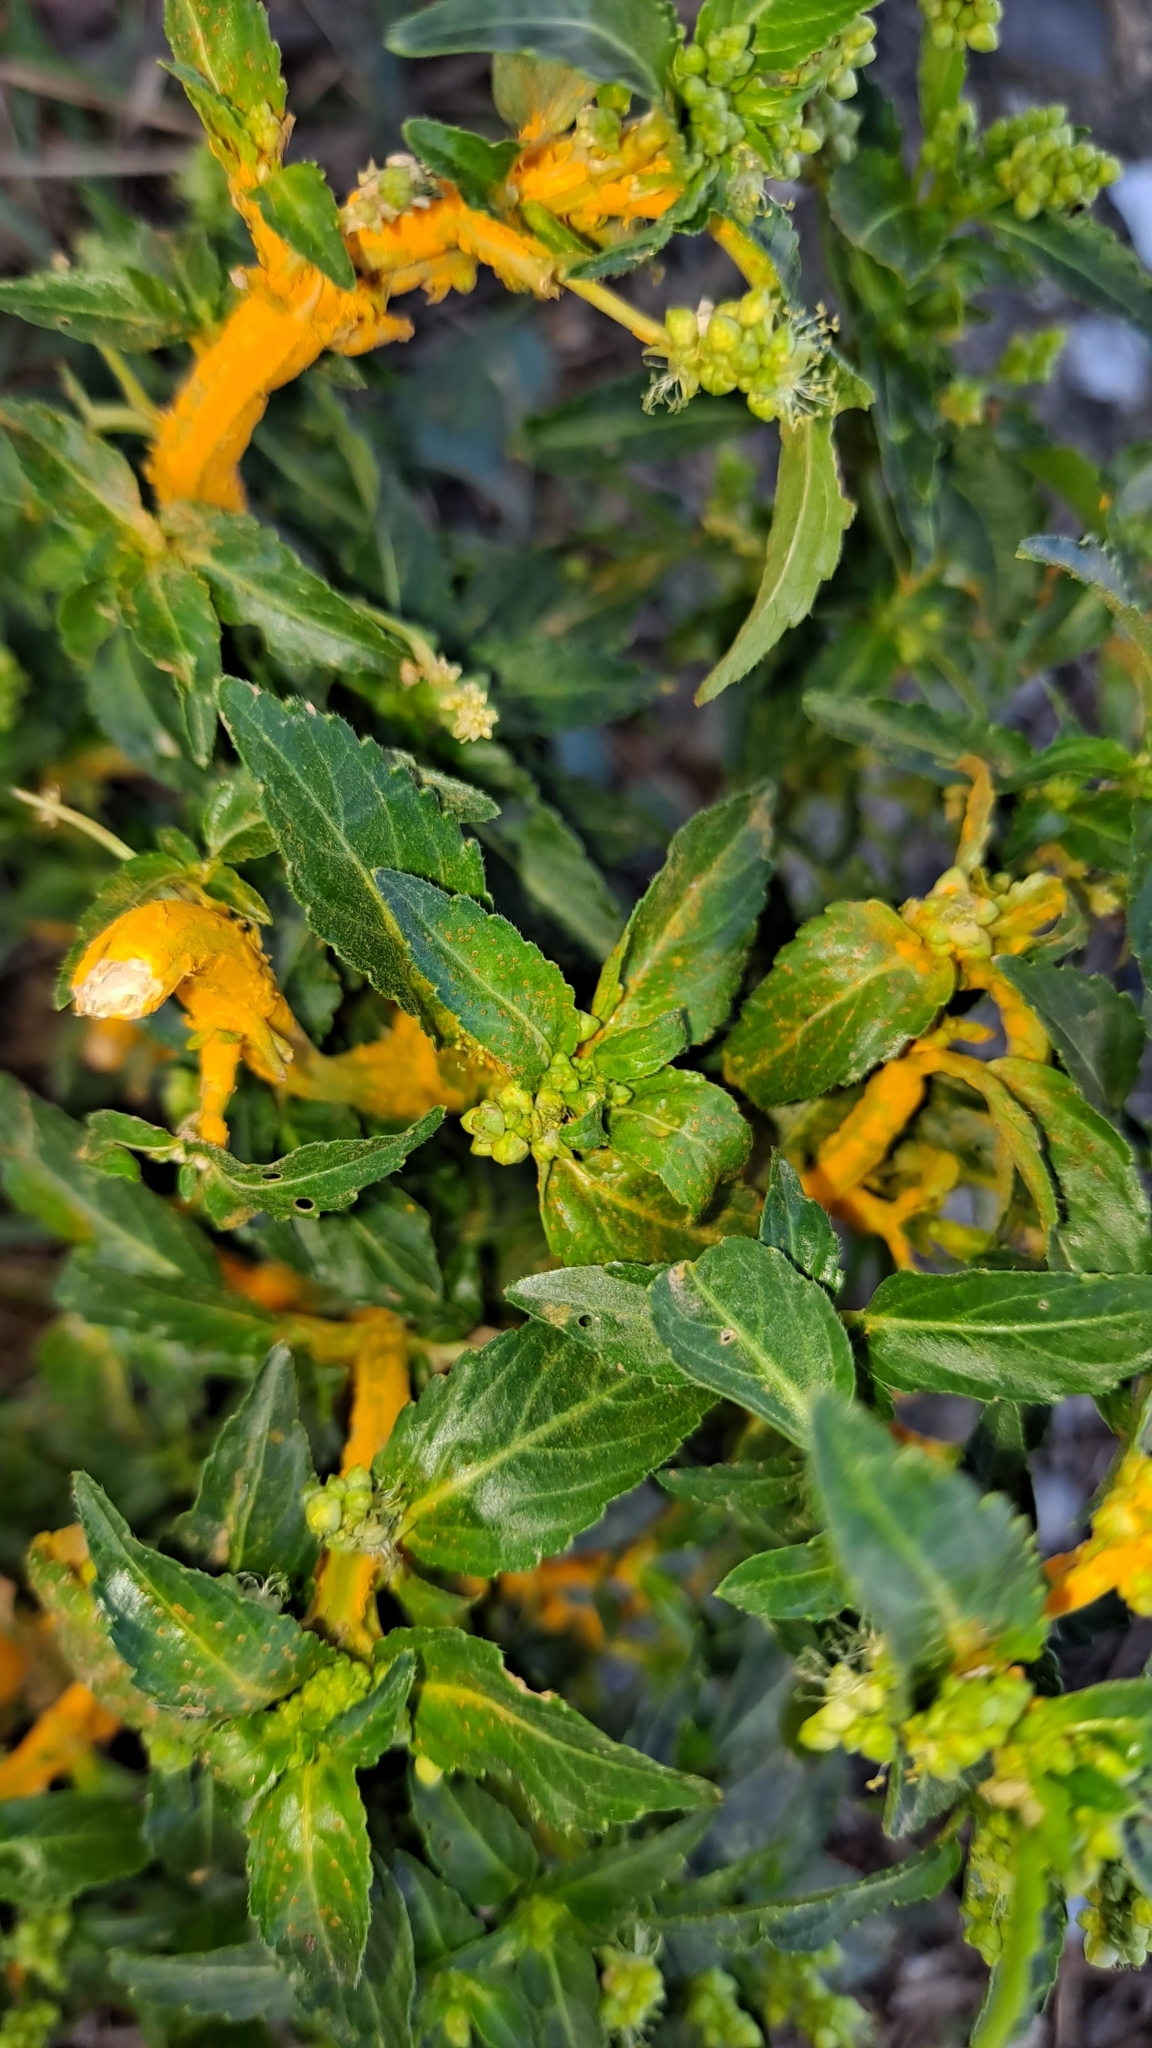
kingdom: Plantae
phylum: Tracheophyta
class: Magnoliopsida
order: Malpighiales
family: Euphorbiaceae
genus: Mercurialis
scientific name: Mercurialis annua
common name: Annual mercury
